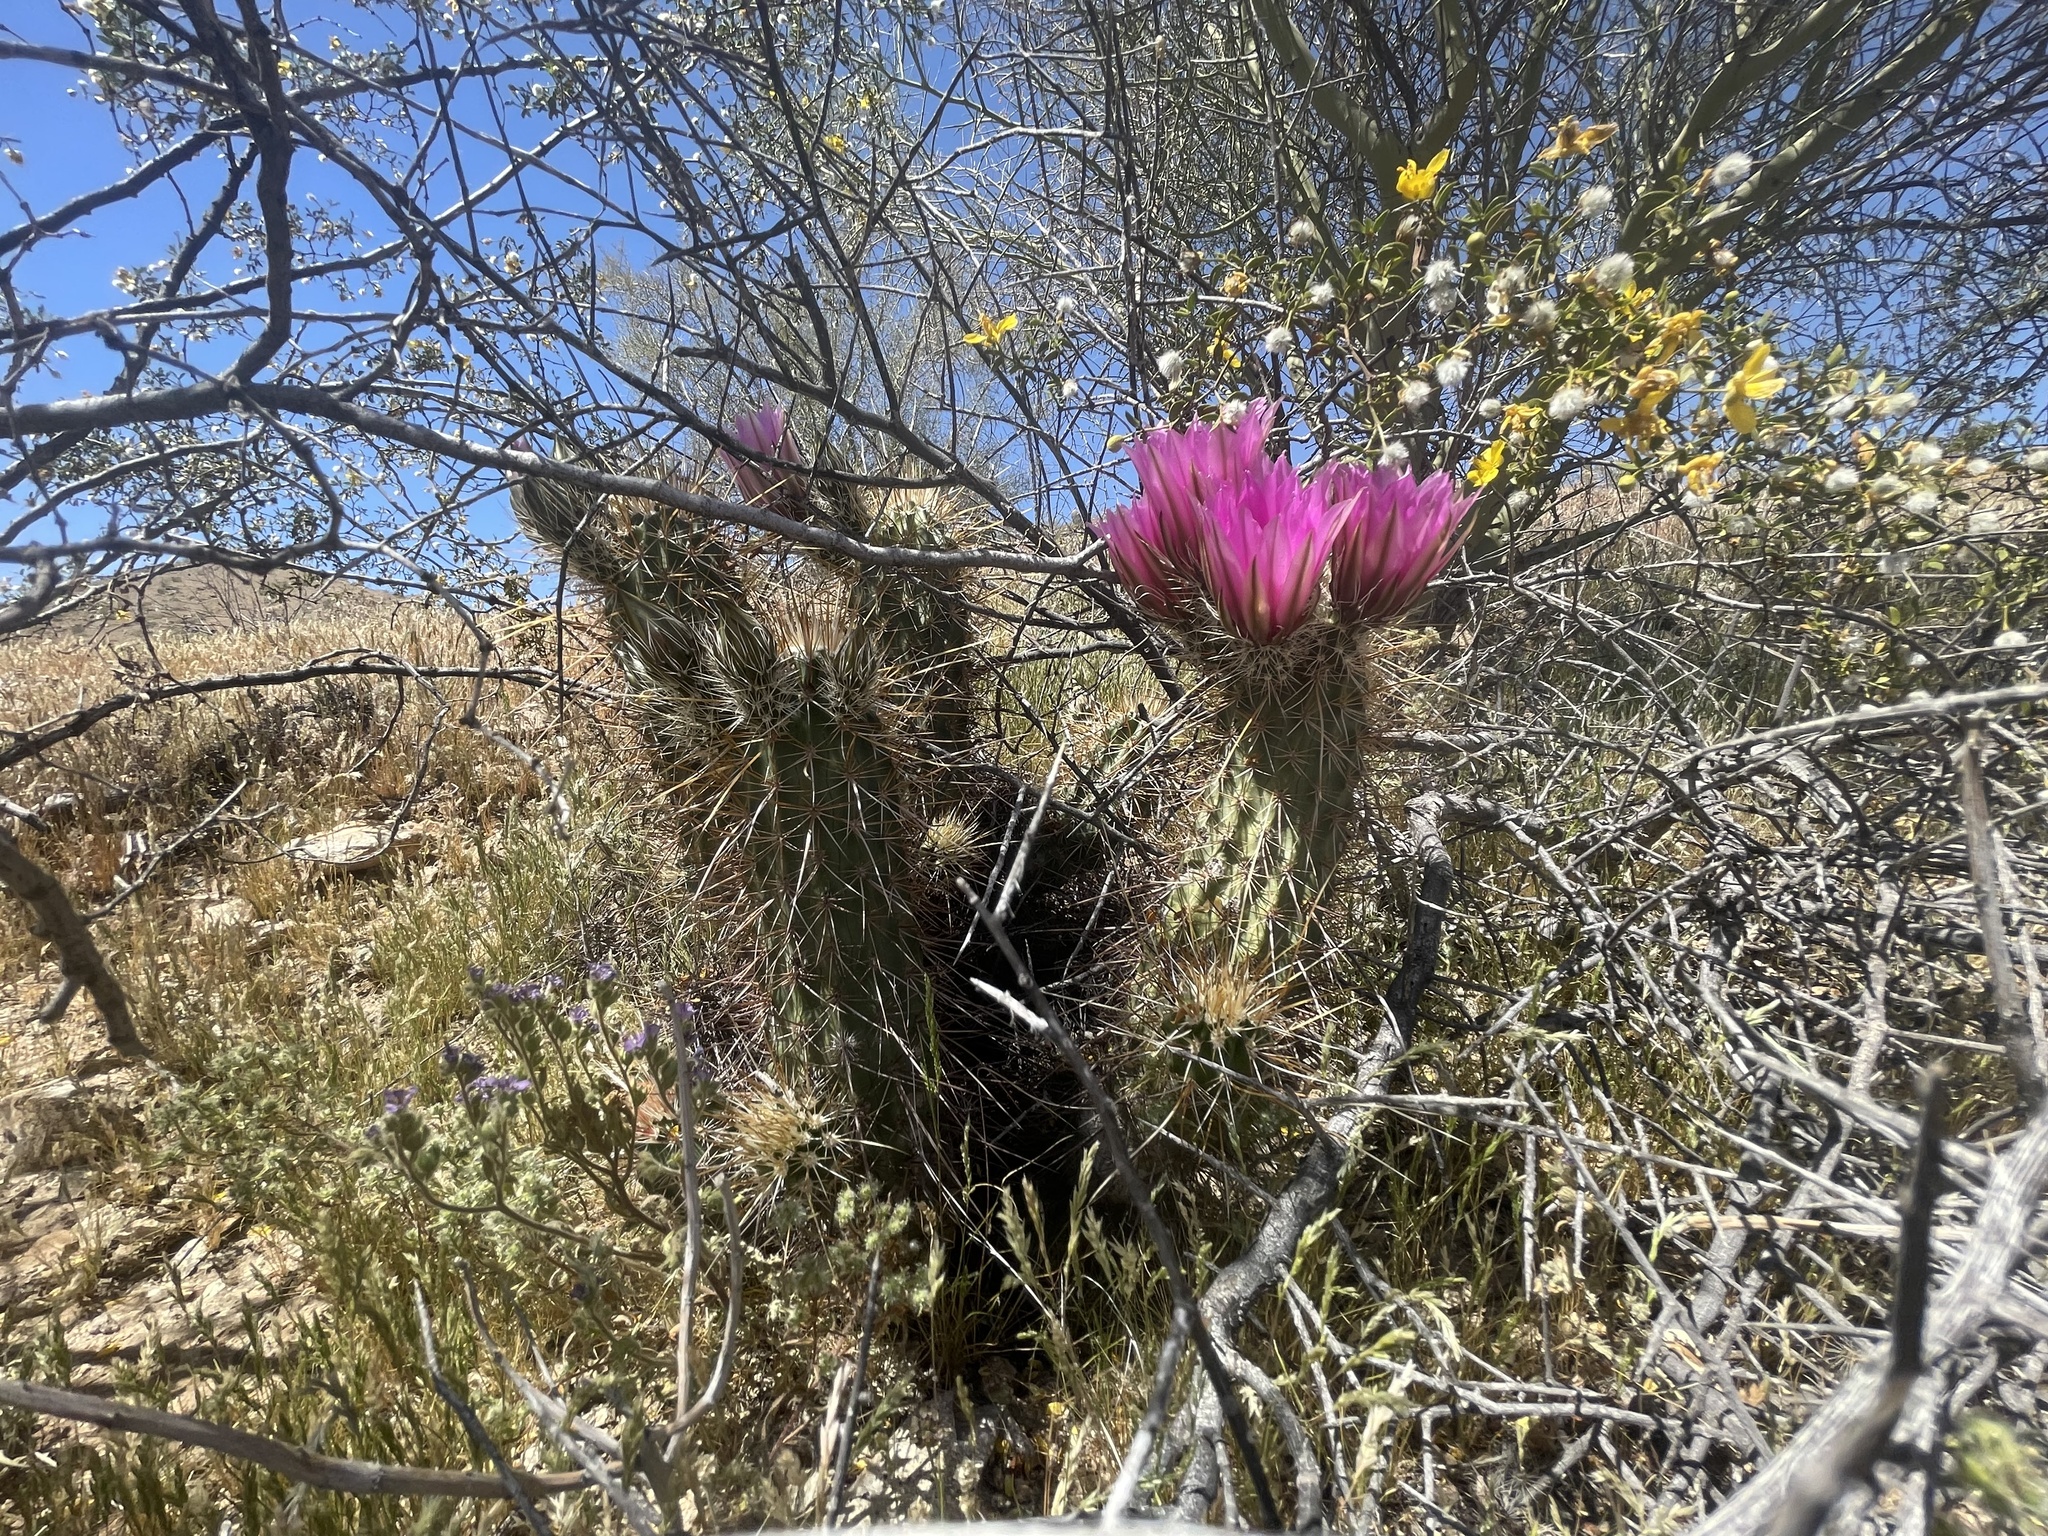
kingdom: Plantae
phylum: Tracheophyta
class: Magnoliopsida
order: Caryophyllales
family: Cactaceae
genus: Echinocereus
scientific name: Echinocereus engelmannii
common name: Engelmann's hedgehog cactus
